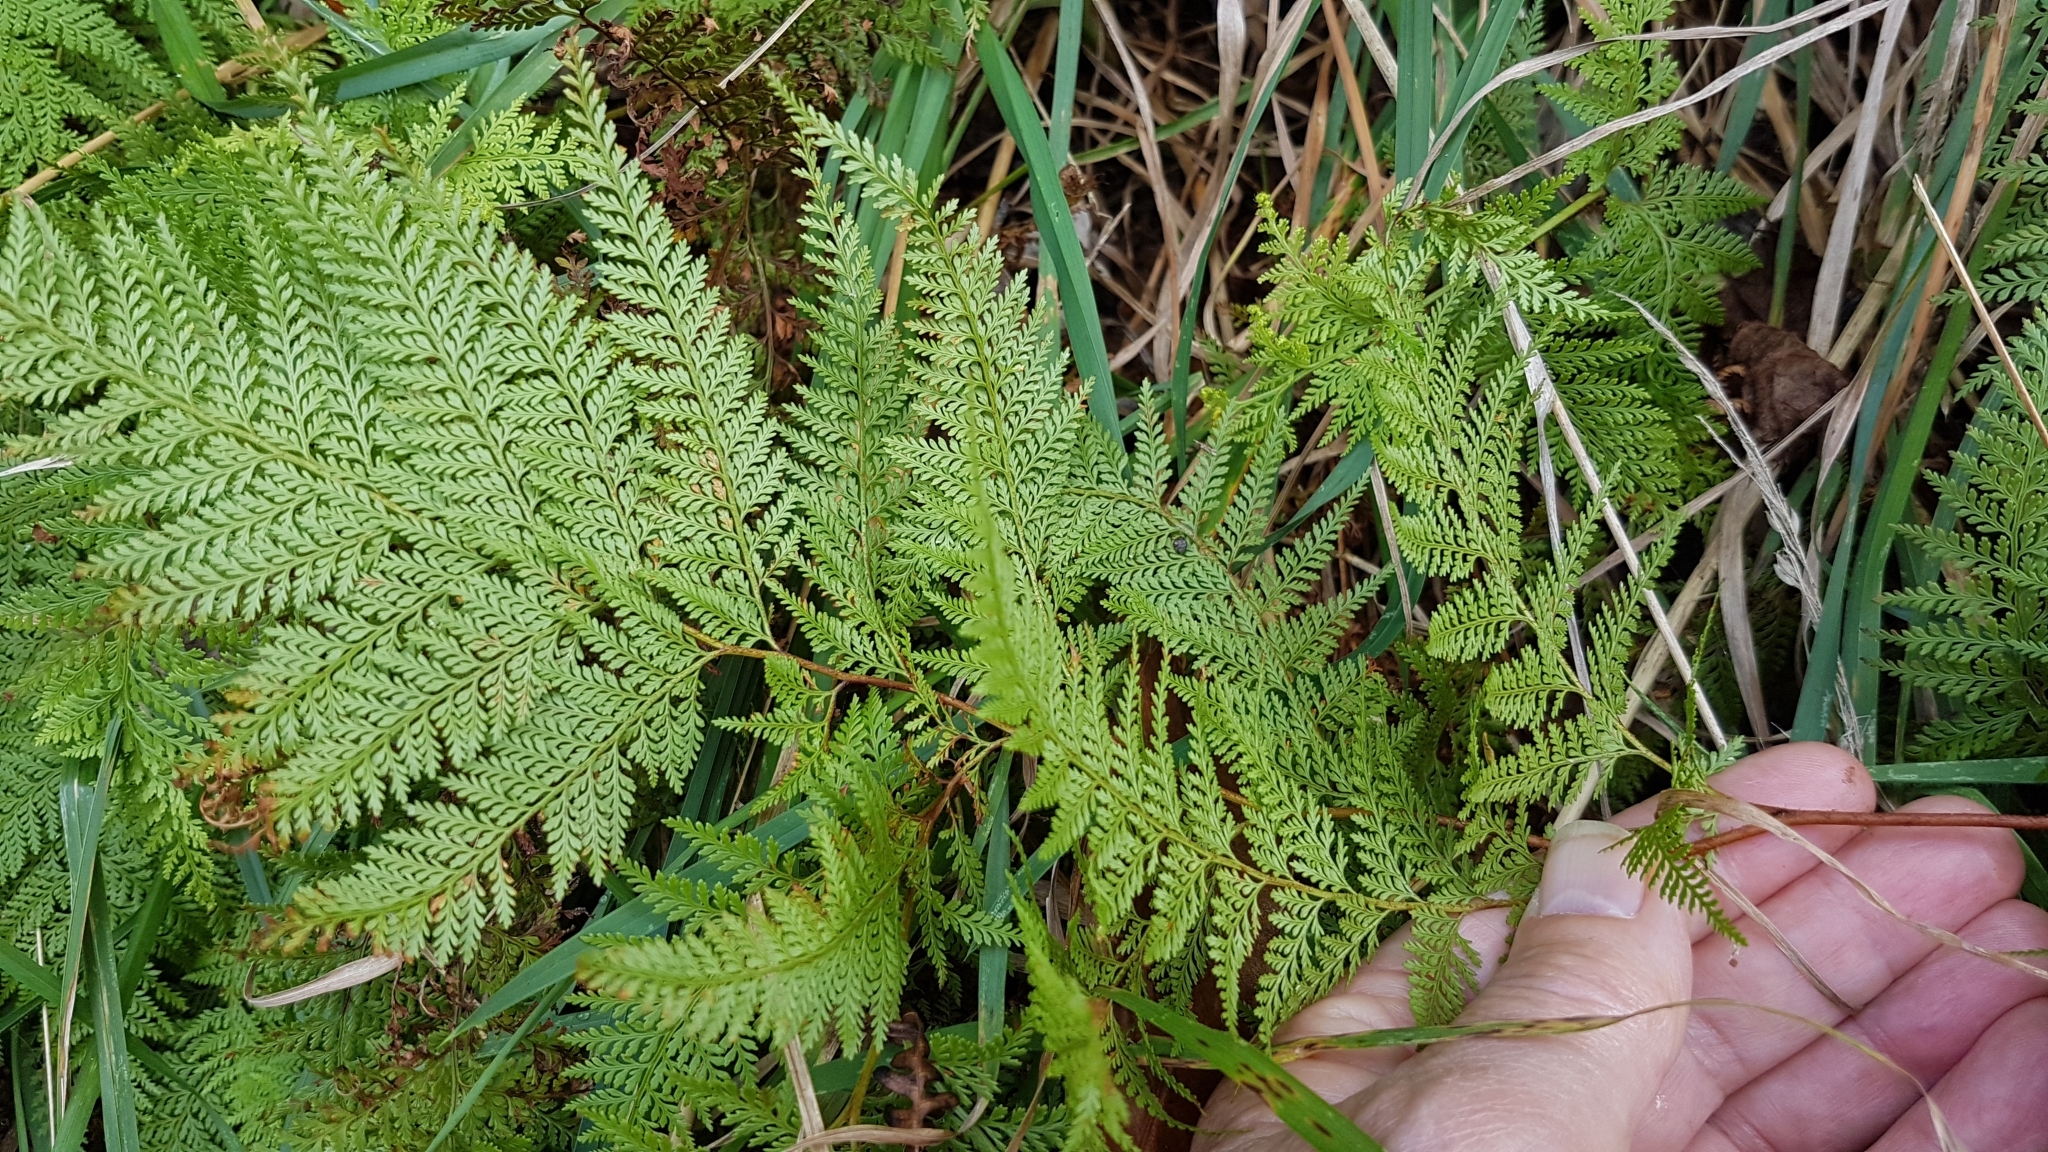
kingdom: Plantae
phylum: Tracheophyta
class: Polypodiopsida
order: Polypodiales
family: Dennstaedtiaceae
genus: Paesia
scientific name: Paesia scaberula
